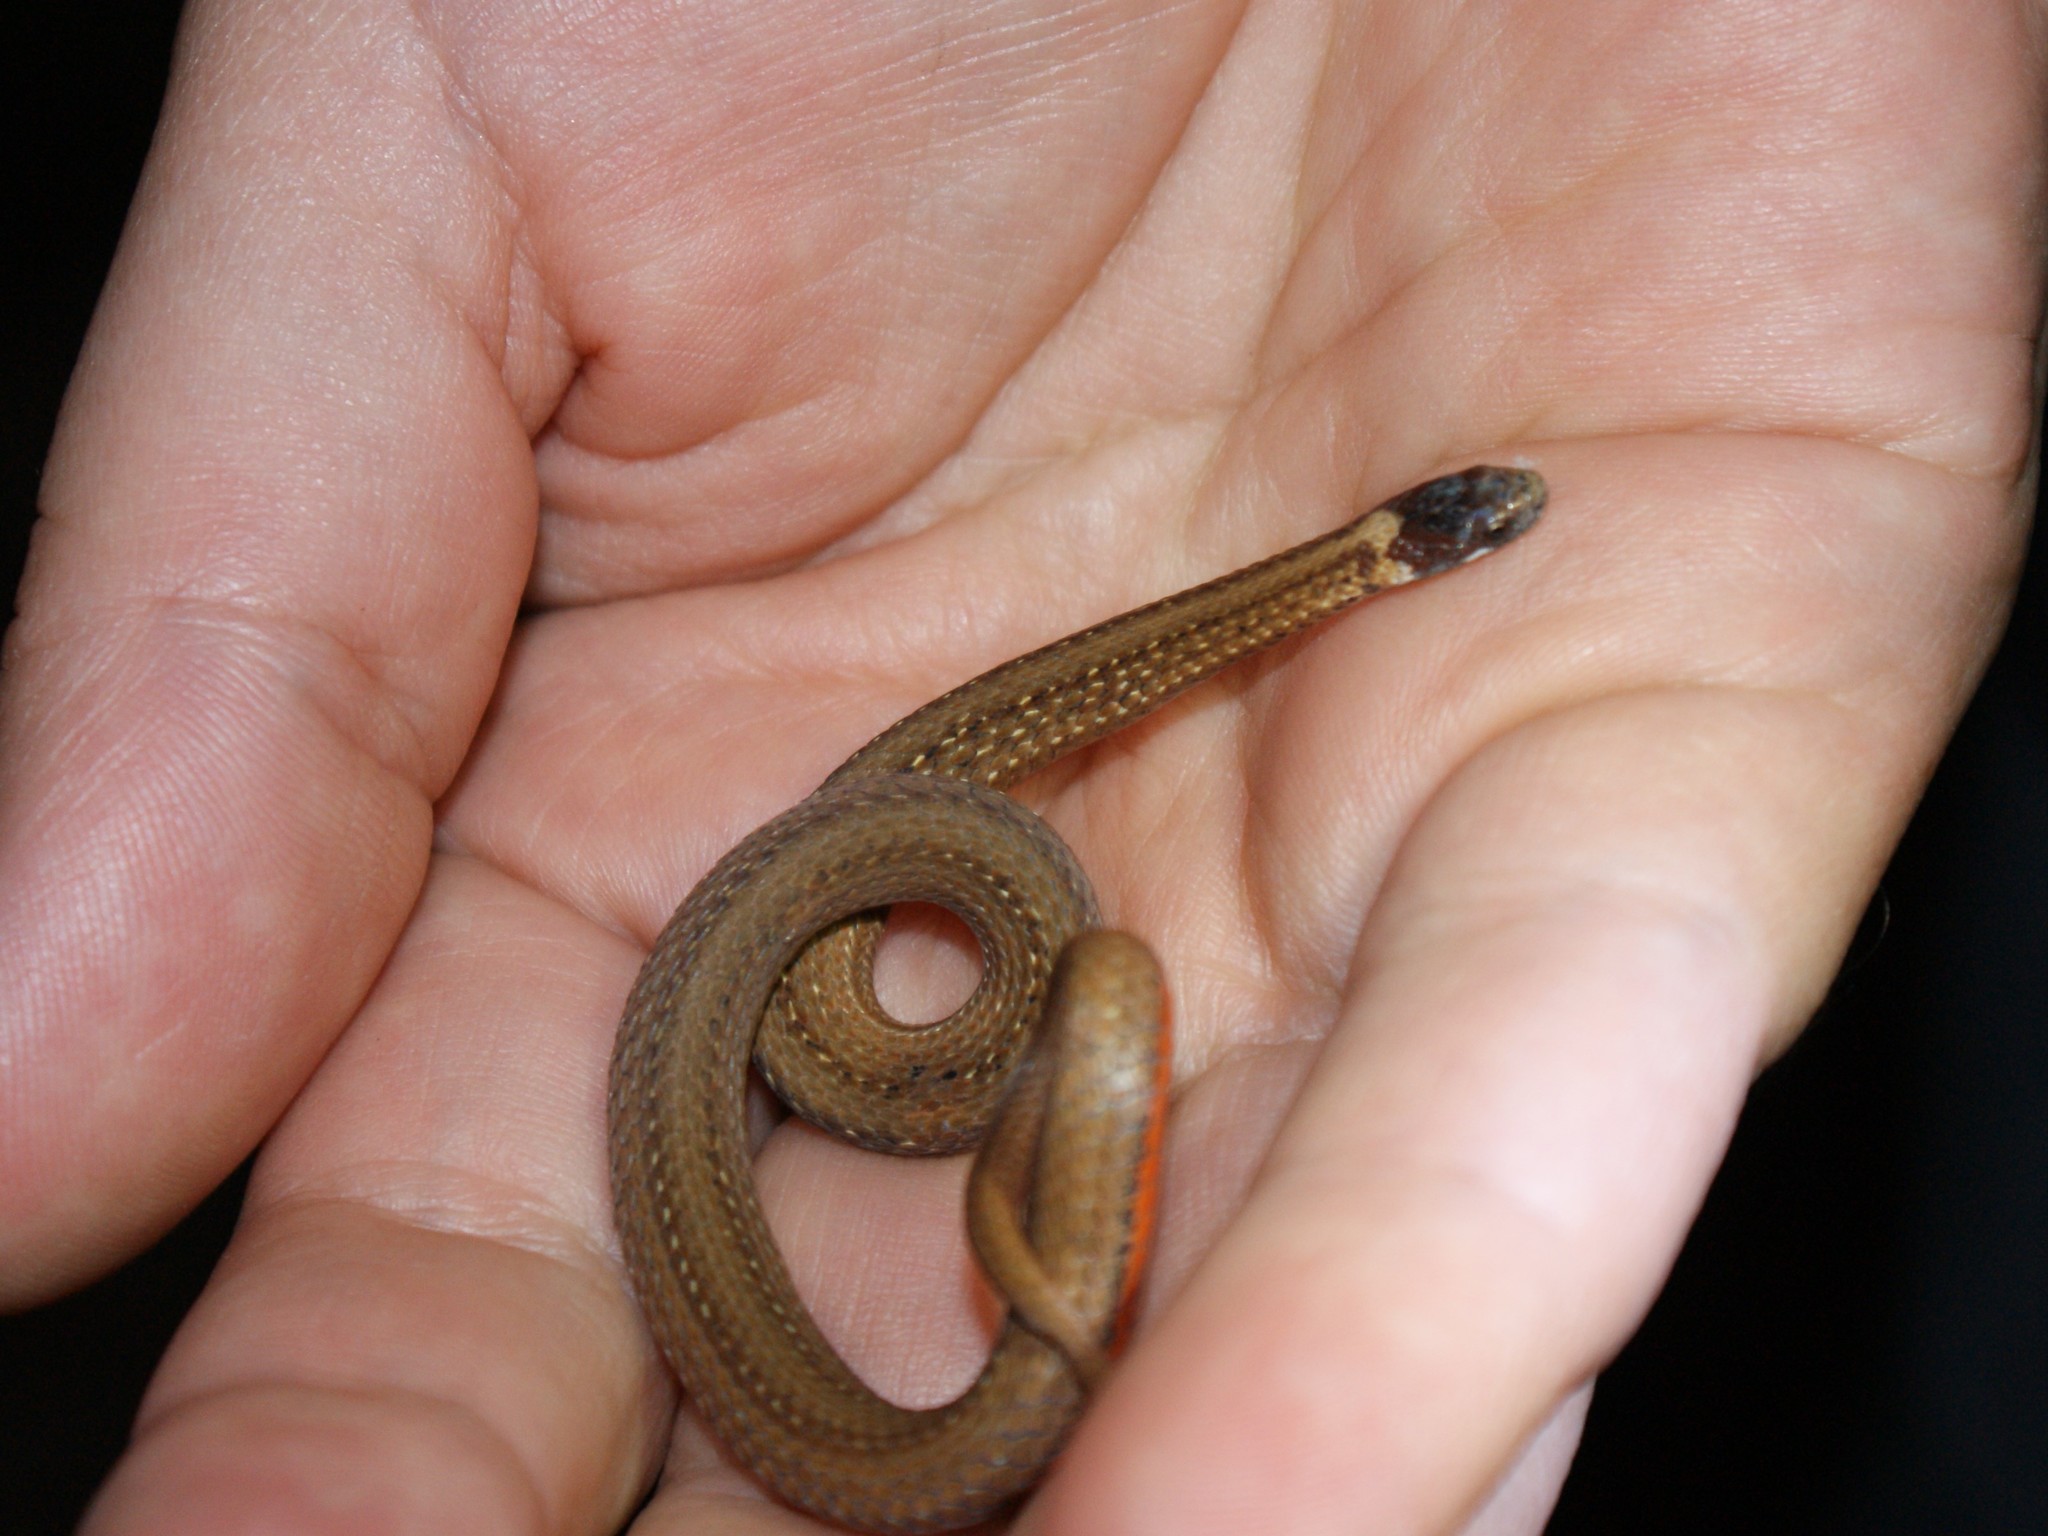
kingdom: Animalia
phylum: Chordata
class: Squamata
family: Colubridae
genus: Storeria
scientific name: Storeria occipitomaculata
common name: Redbelly snake
